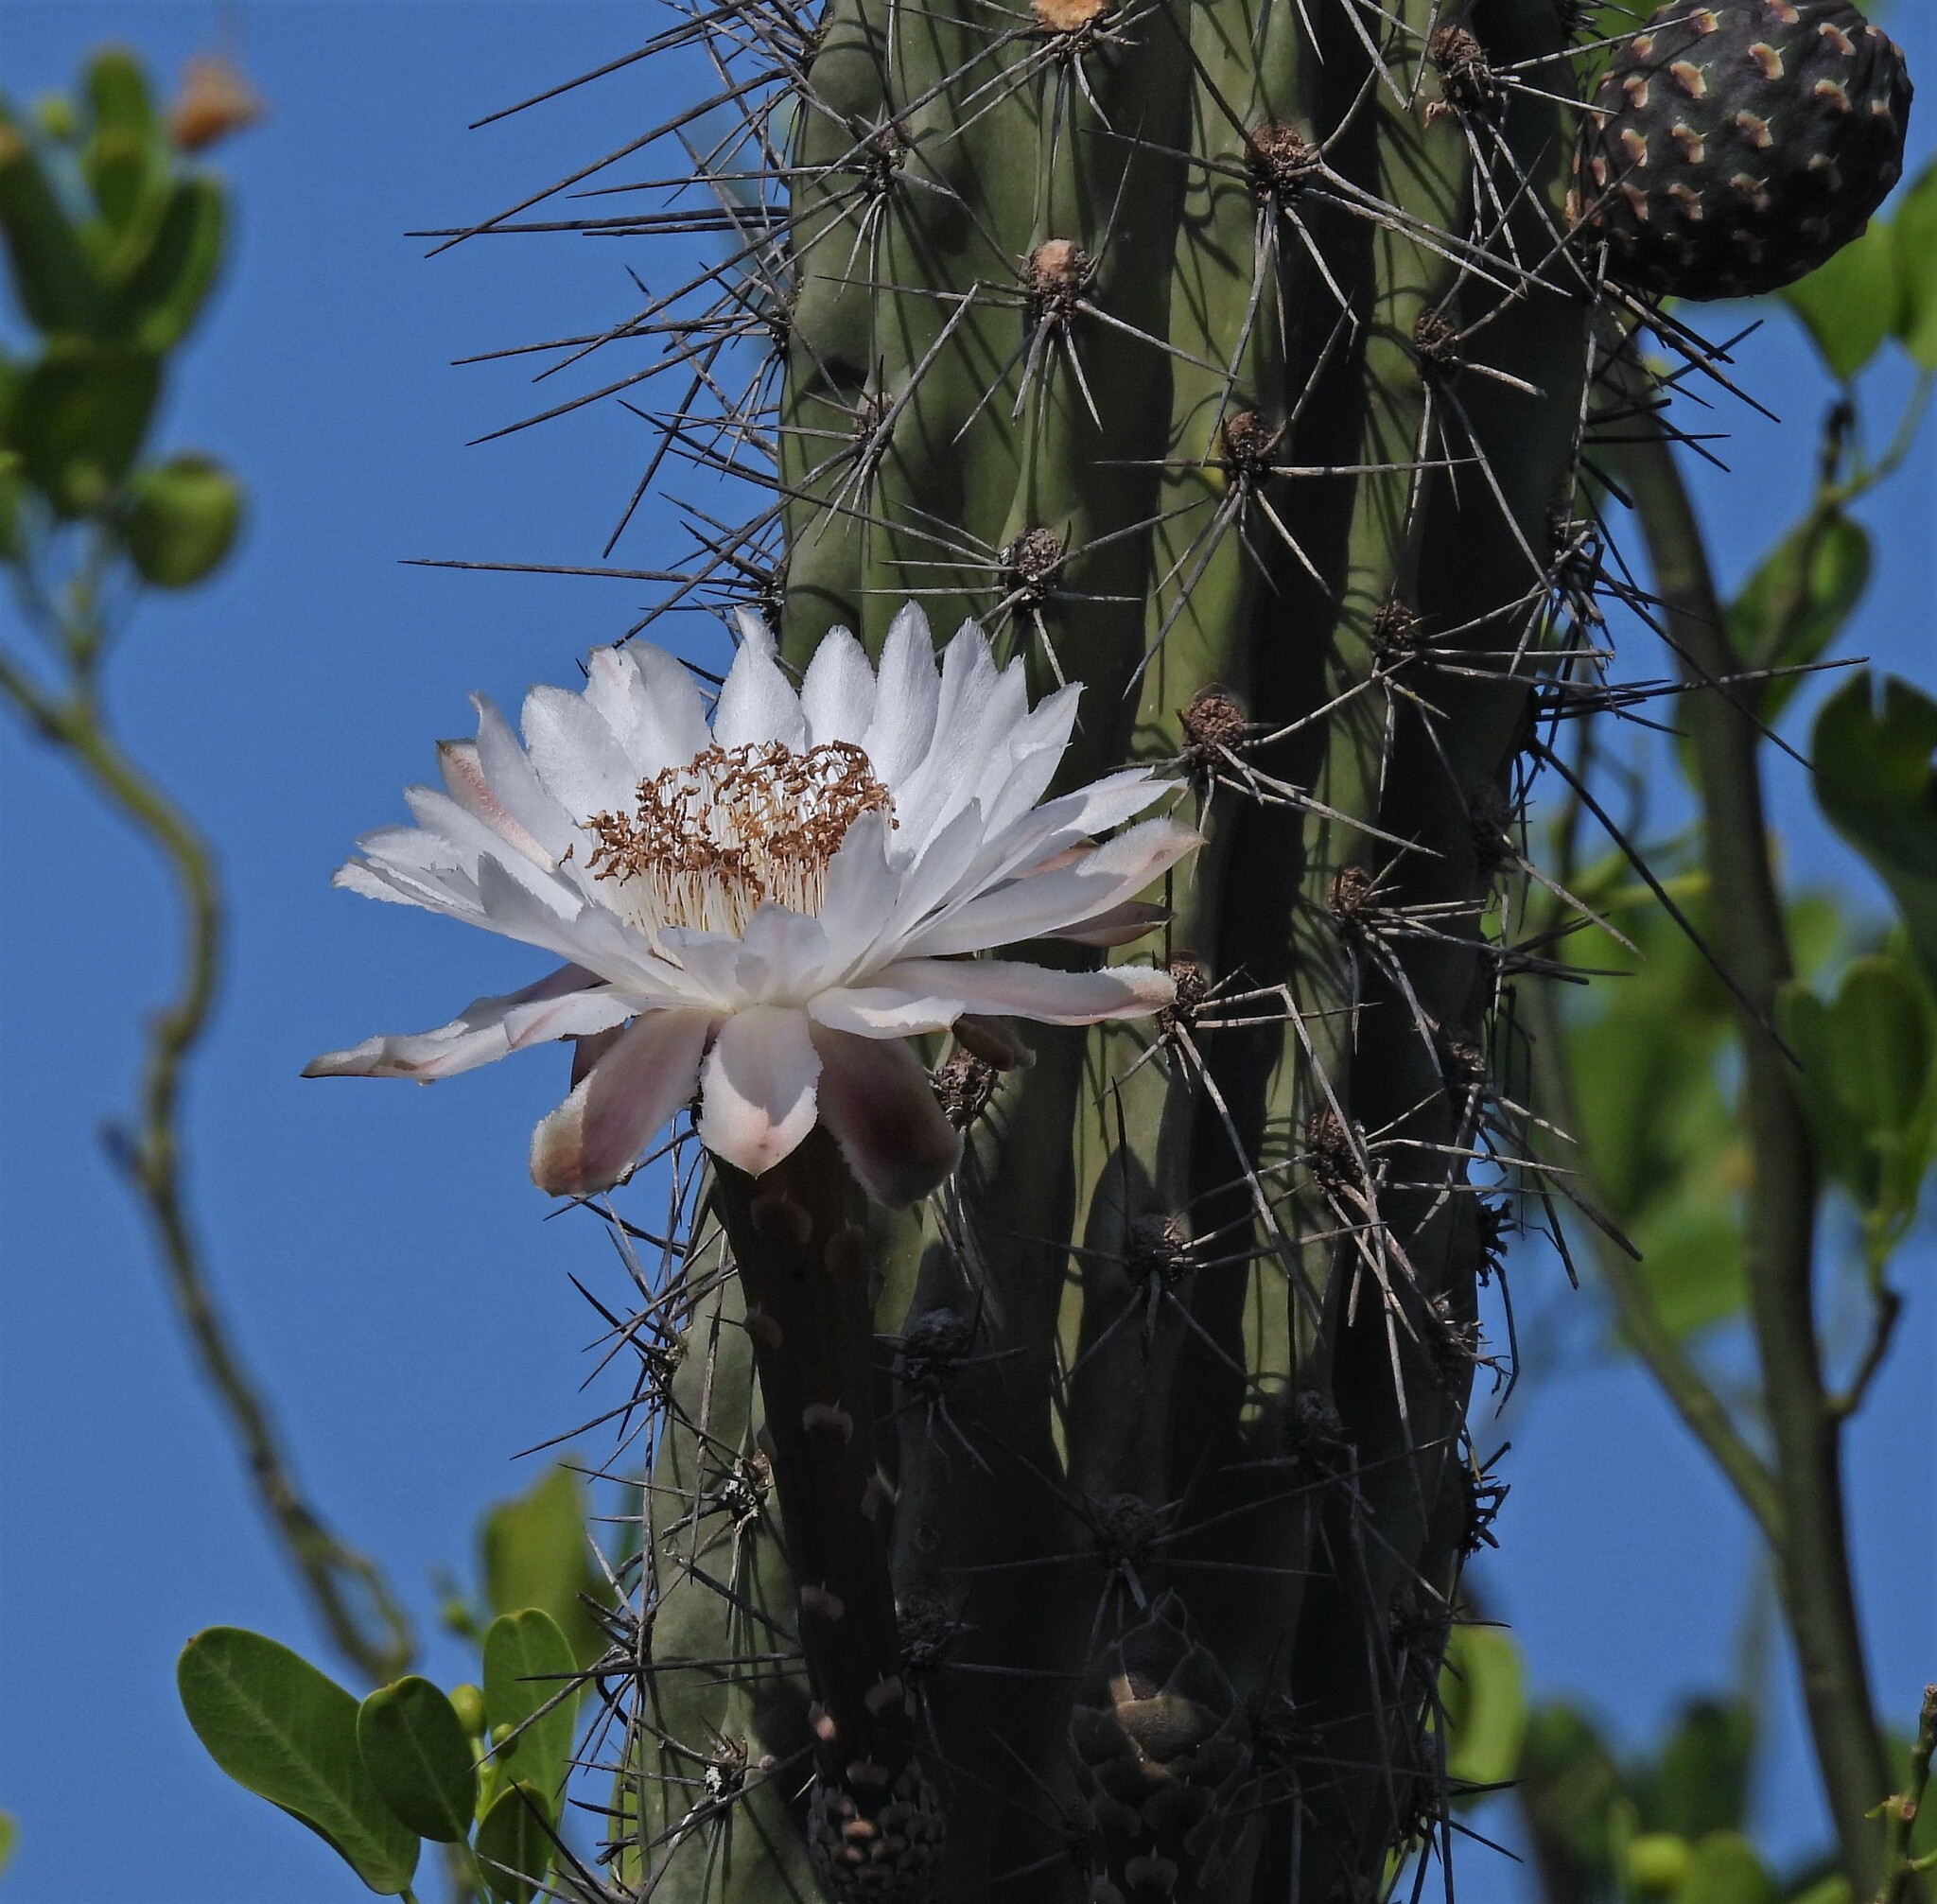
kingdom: Plantae
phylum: Tracheophyta
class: Magnoliopsida
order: Caryophyllales
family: Cactaceae
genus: Stetsonia
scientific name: Stetsonia coryne
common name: Toothpick cactus
